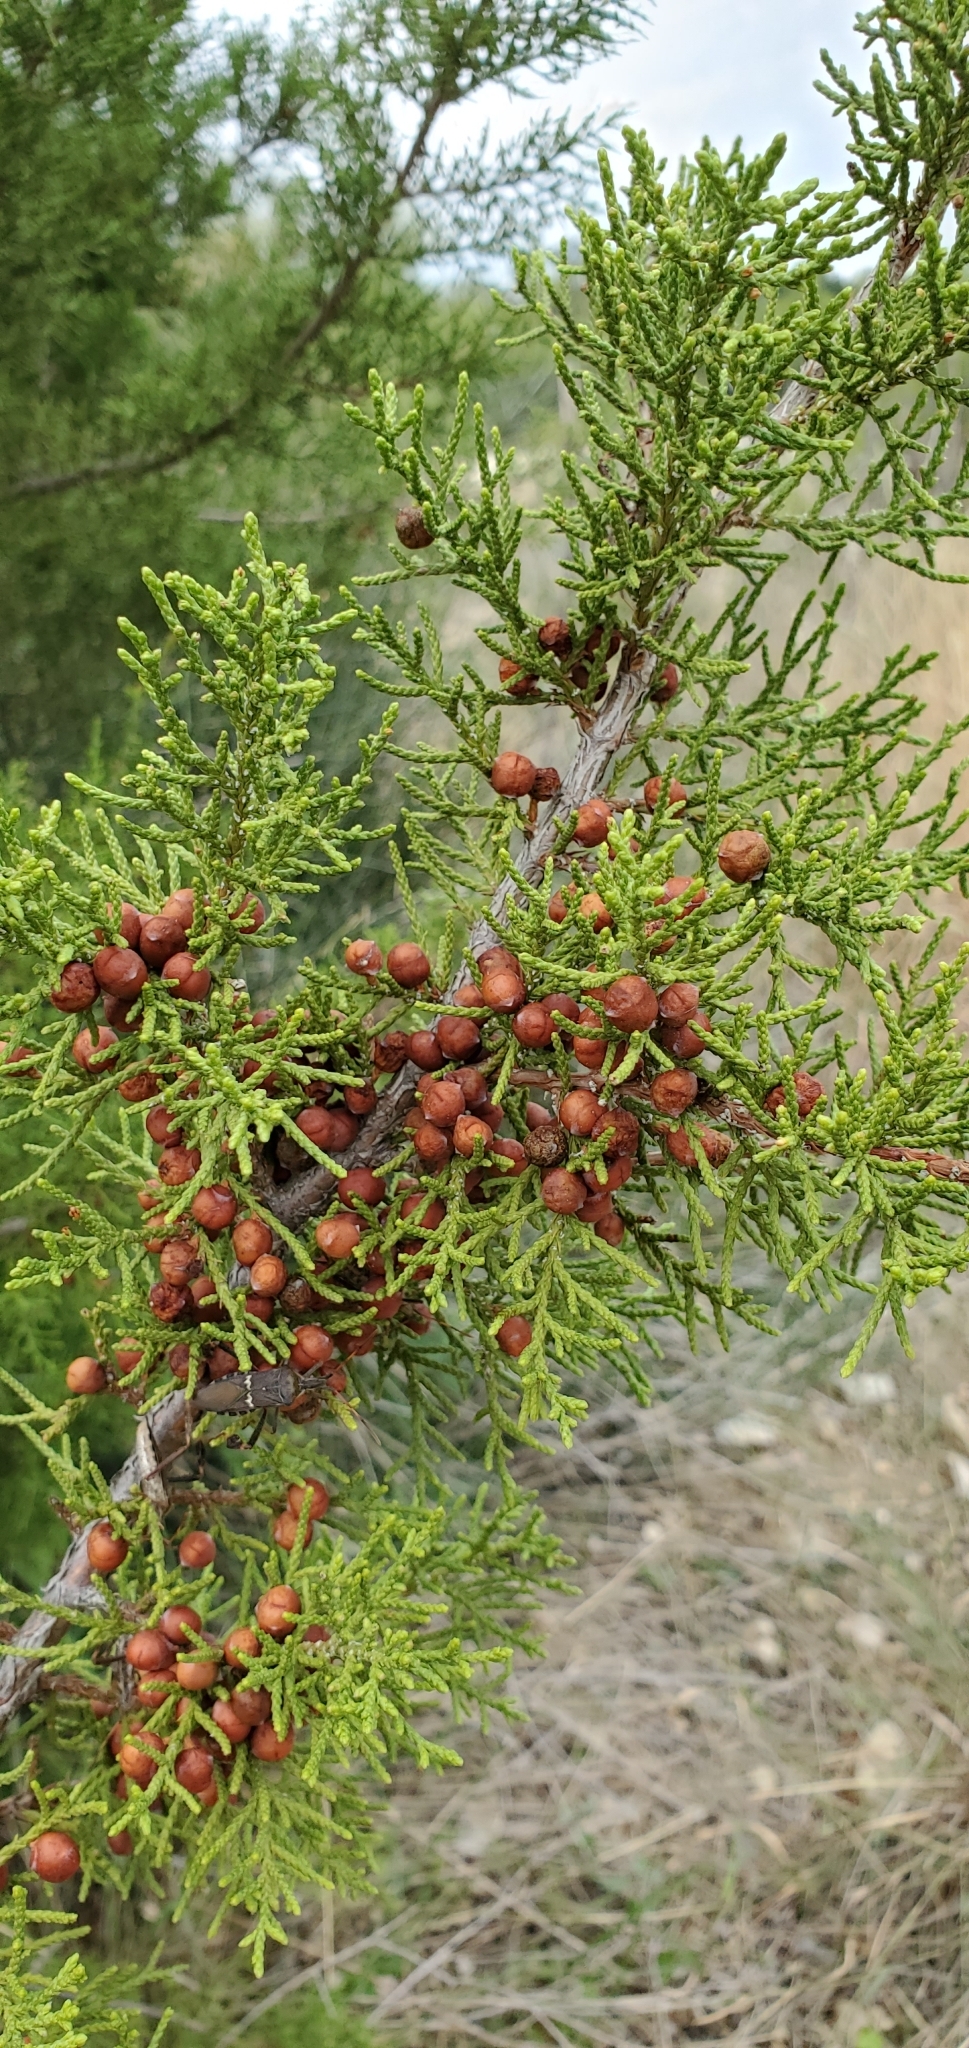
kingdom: Plantae
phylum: Tracheophyta
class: Pinopsida
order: Pinales
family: Cupressaceae
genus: Juniperus
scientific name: Juniperus pinchotii
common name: Pinchot juniper
